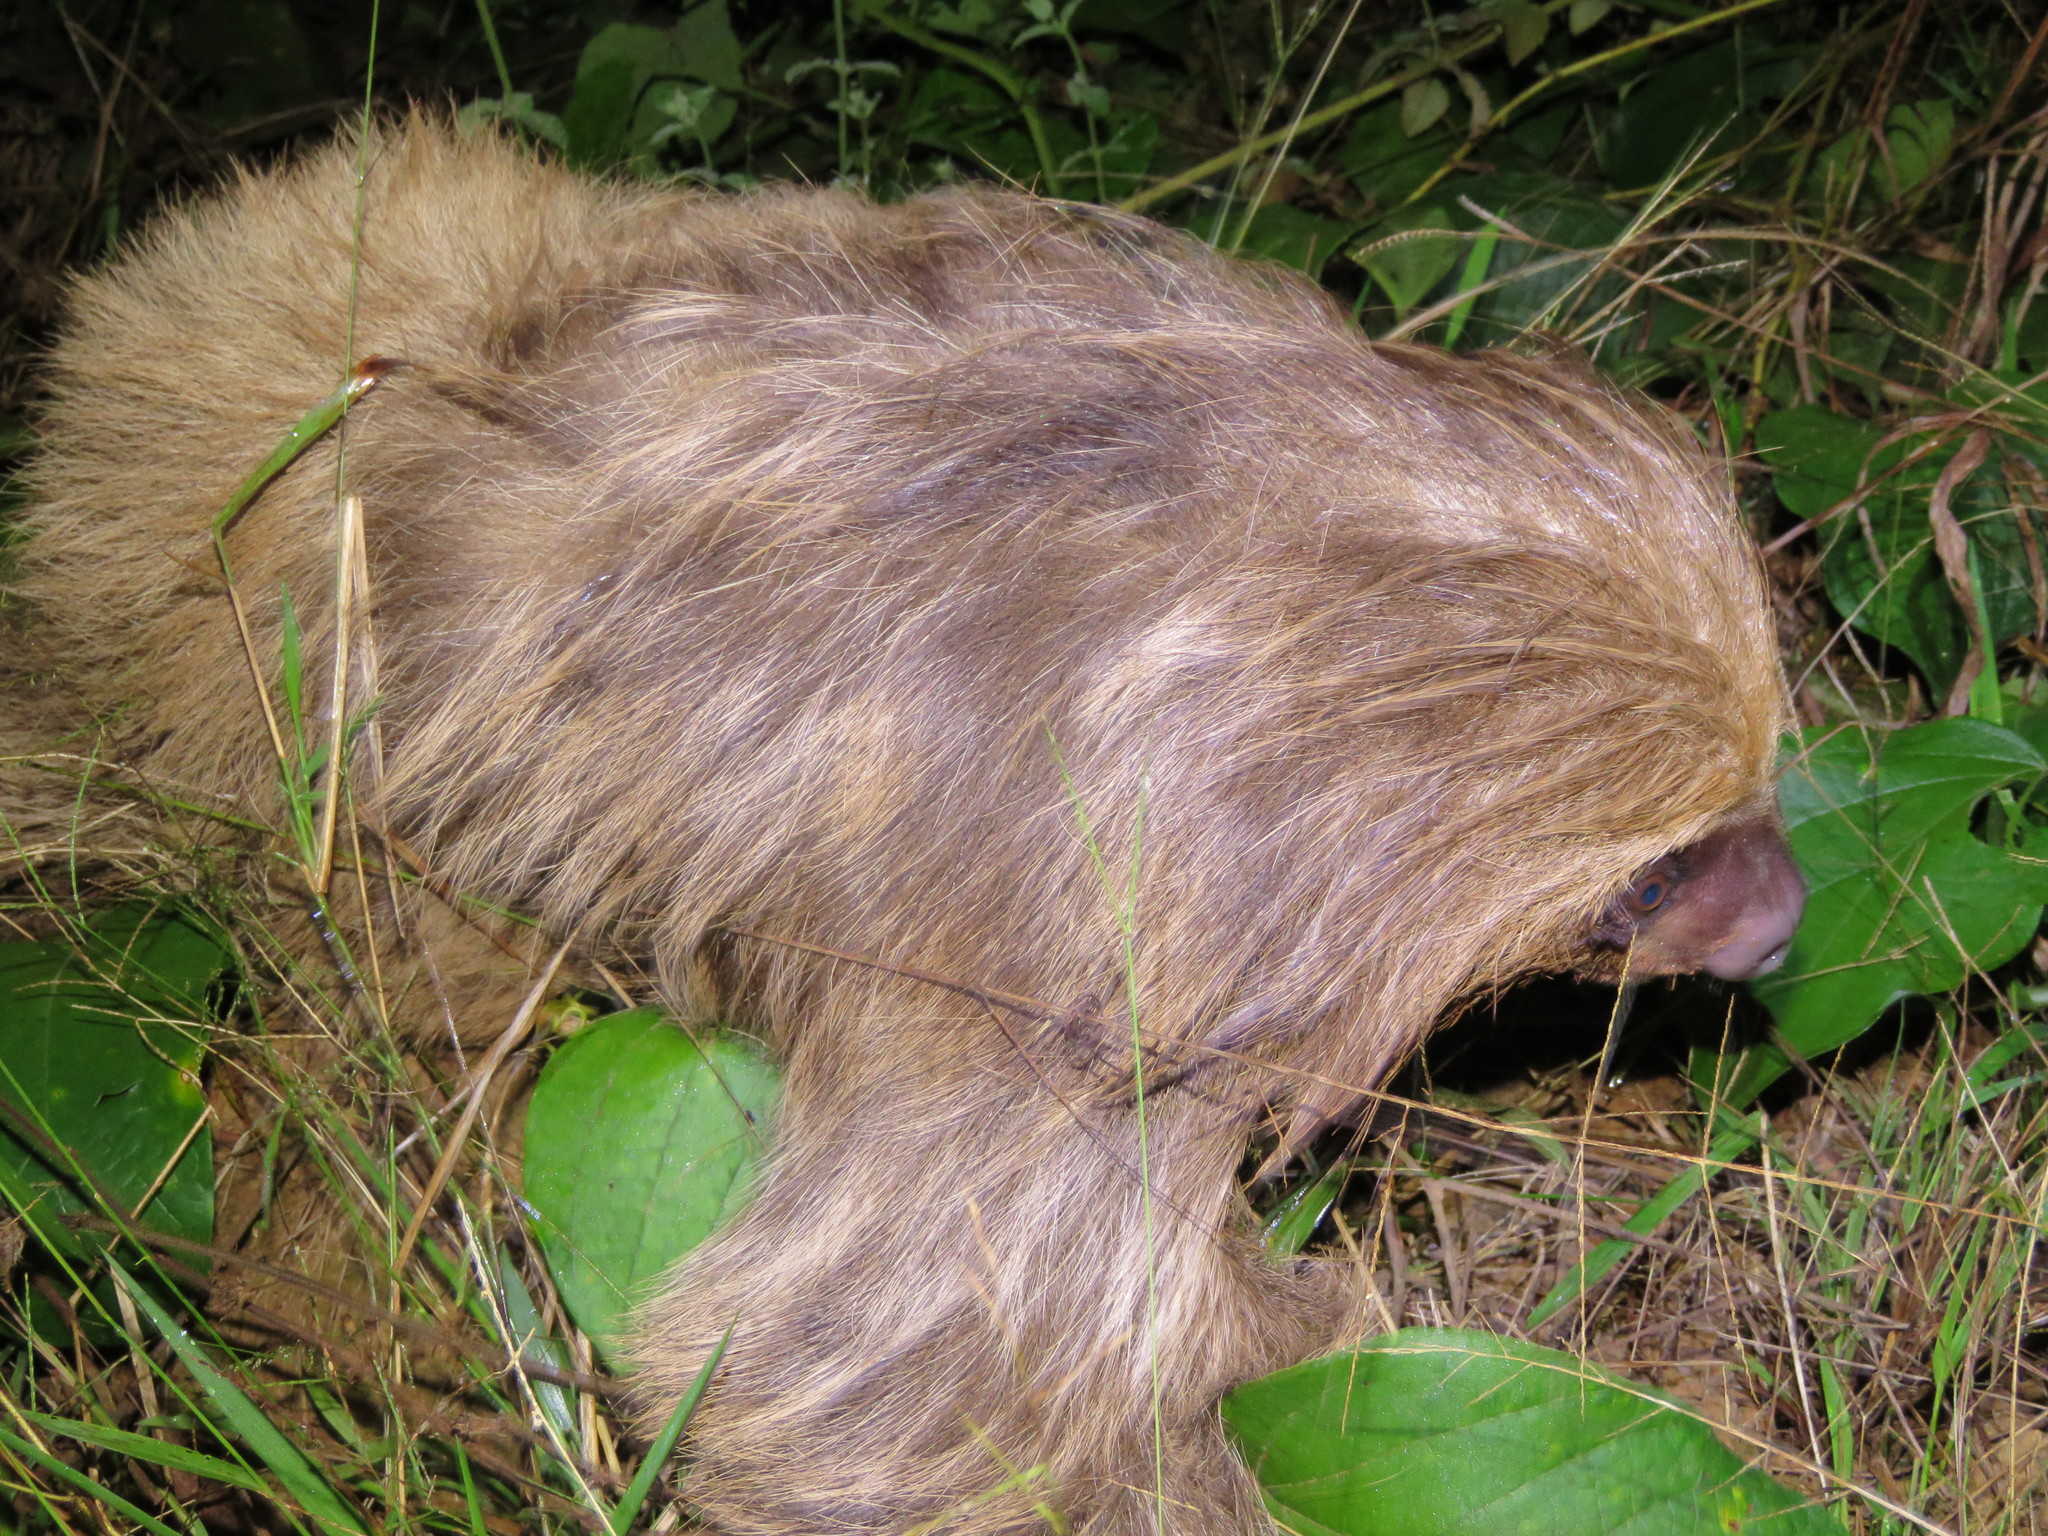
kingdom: Animalia
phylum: Chordata
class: Mammalia
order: Pilosa
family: Megalonychidae
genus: Choloepus
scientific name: Choloepus hoffmanni
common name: Hoffmann's two-toed sloth
